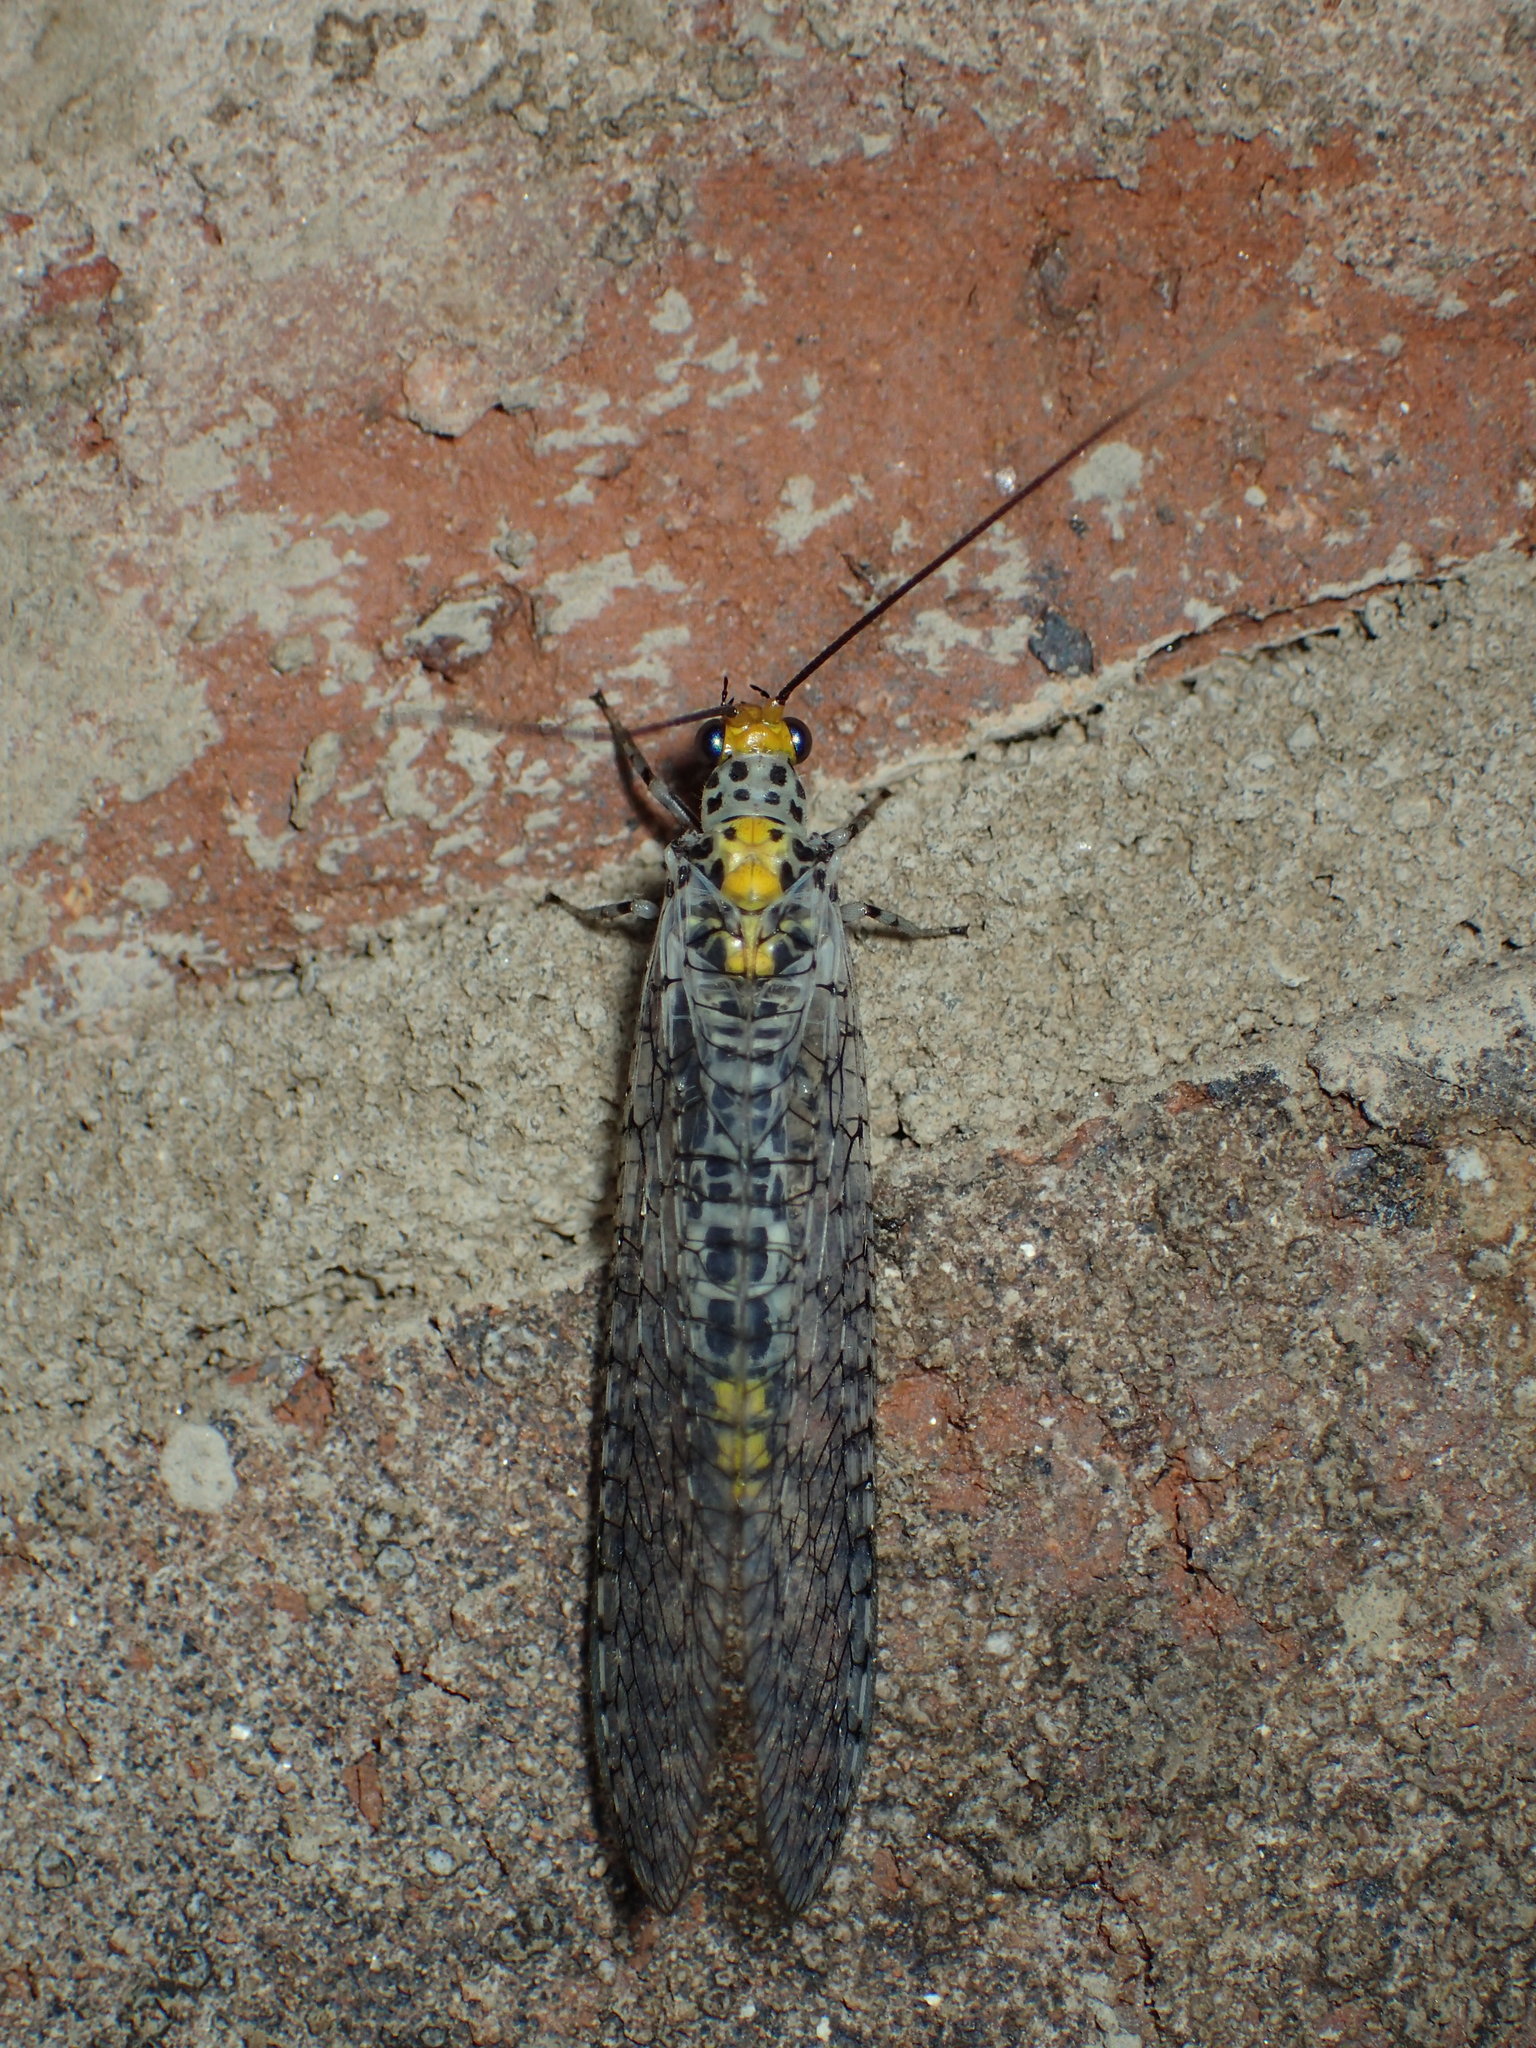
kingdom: Animalia
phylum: Arthropoda
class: Insecta
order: Neuroptera
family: Chrysopidae
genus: Abachrysa
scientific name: Abachrysa eureka
